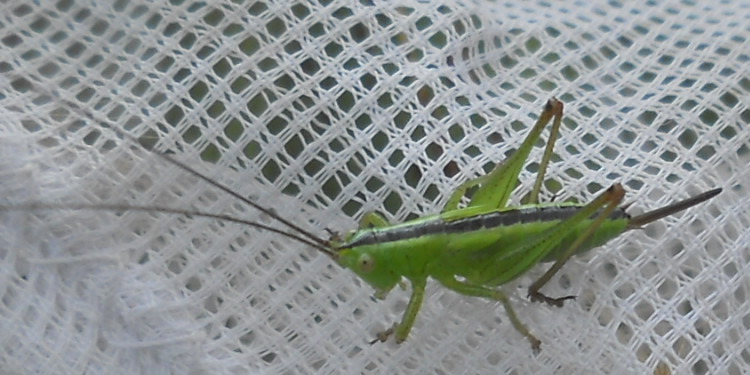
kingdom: Animalia
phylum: Arthropoda
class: Insecta
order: Orthoptera
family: Tettigoniidae
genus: Conocephalus
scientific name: Conocephalus
